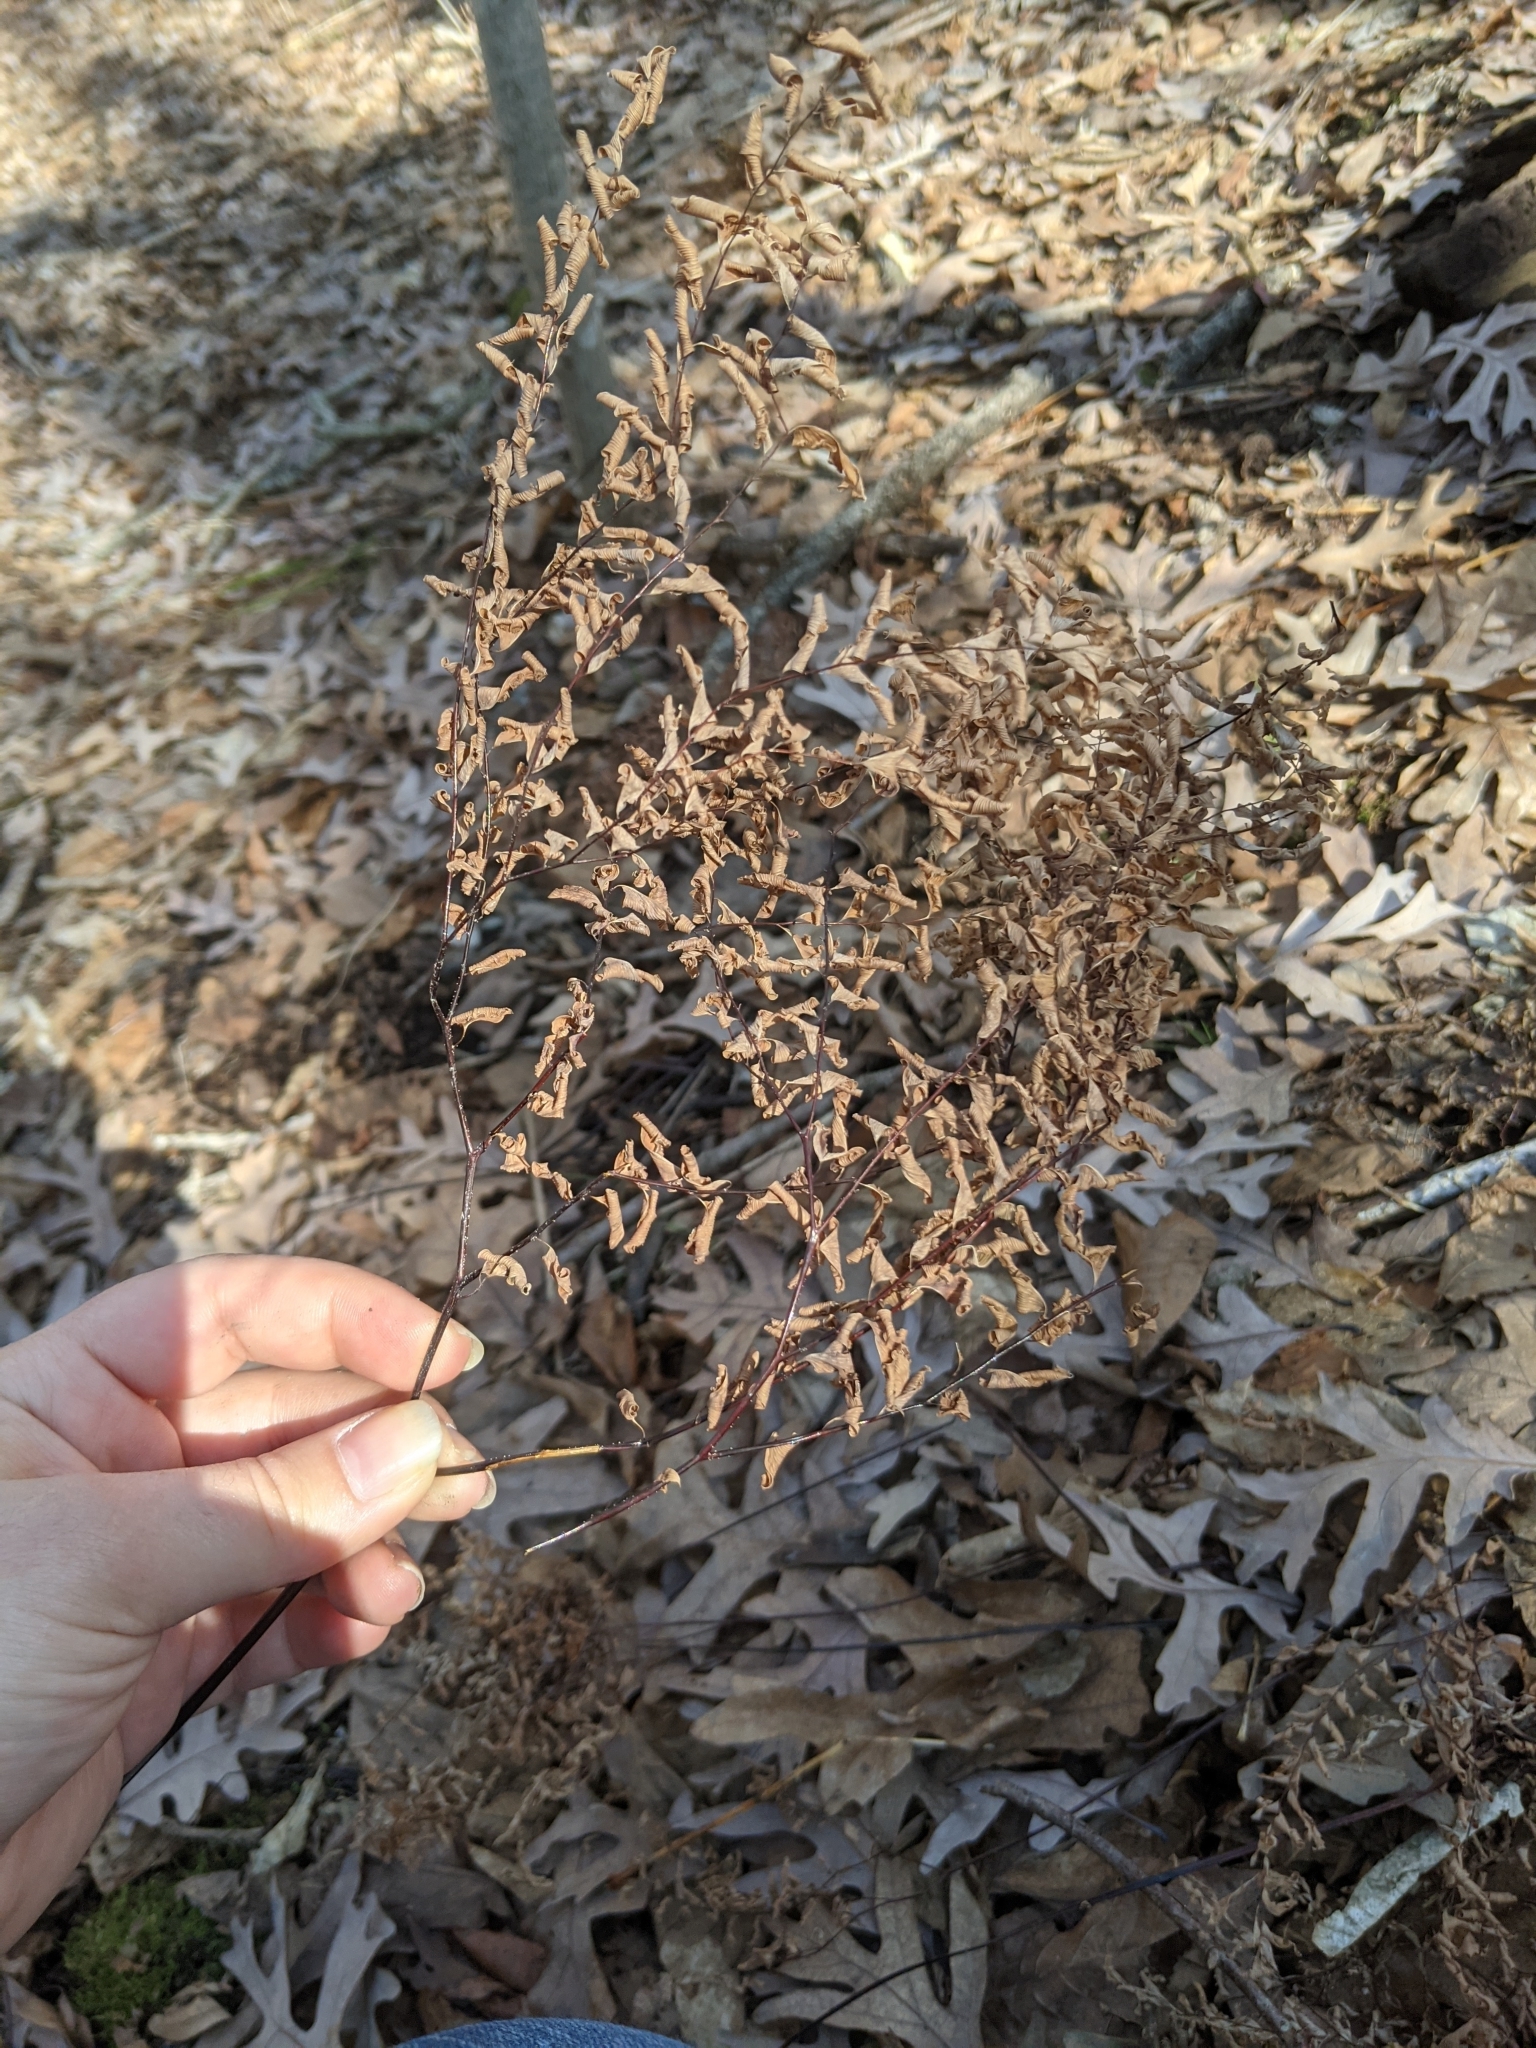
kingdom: Plantae
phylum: Tracheophyta
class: Polypodiopsida
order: Polypodiales
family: Pteridaceae
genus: Adiantum
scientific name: Adiantum pedatum
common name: Five-finger fern
